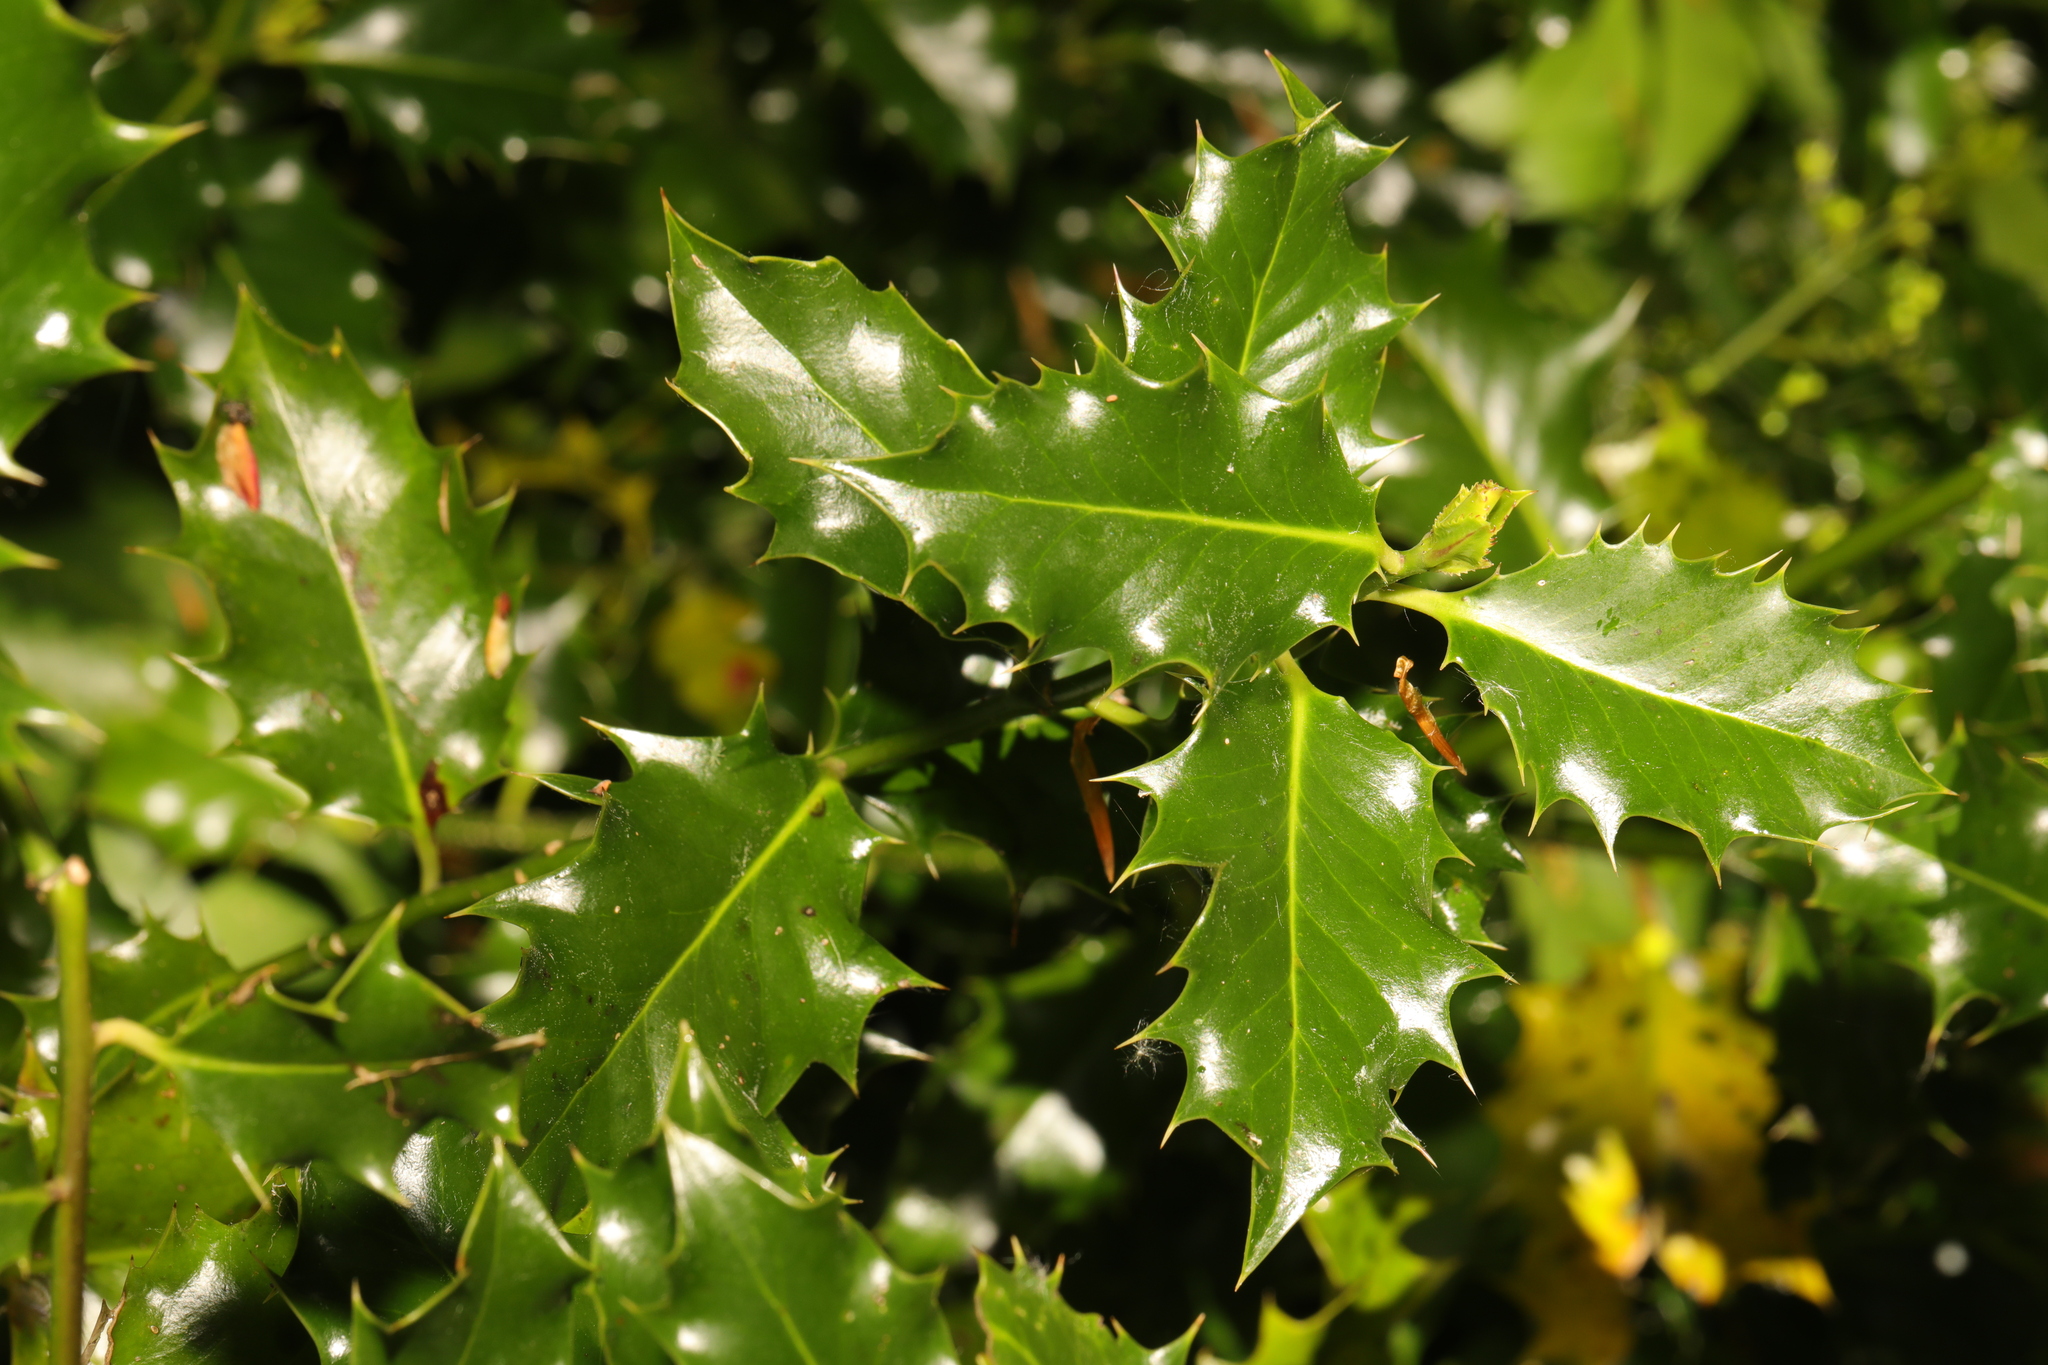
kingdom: Plantae
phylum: Tracheophyta
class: Magnoliopsida
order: Aquifoliales
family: Aquifoliaceae
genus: Ilex
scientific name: Ilex aquifolium
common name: English holly
